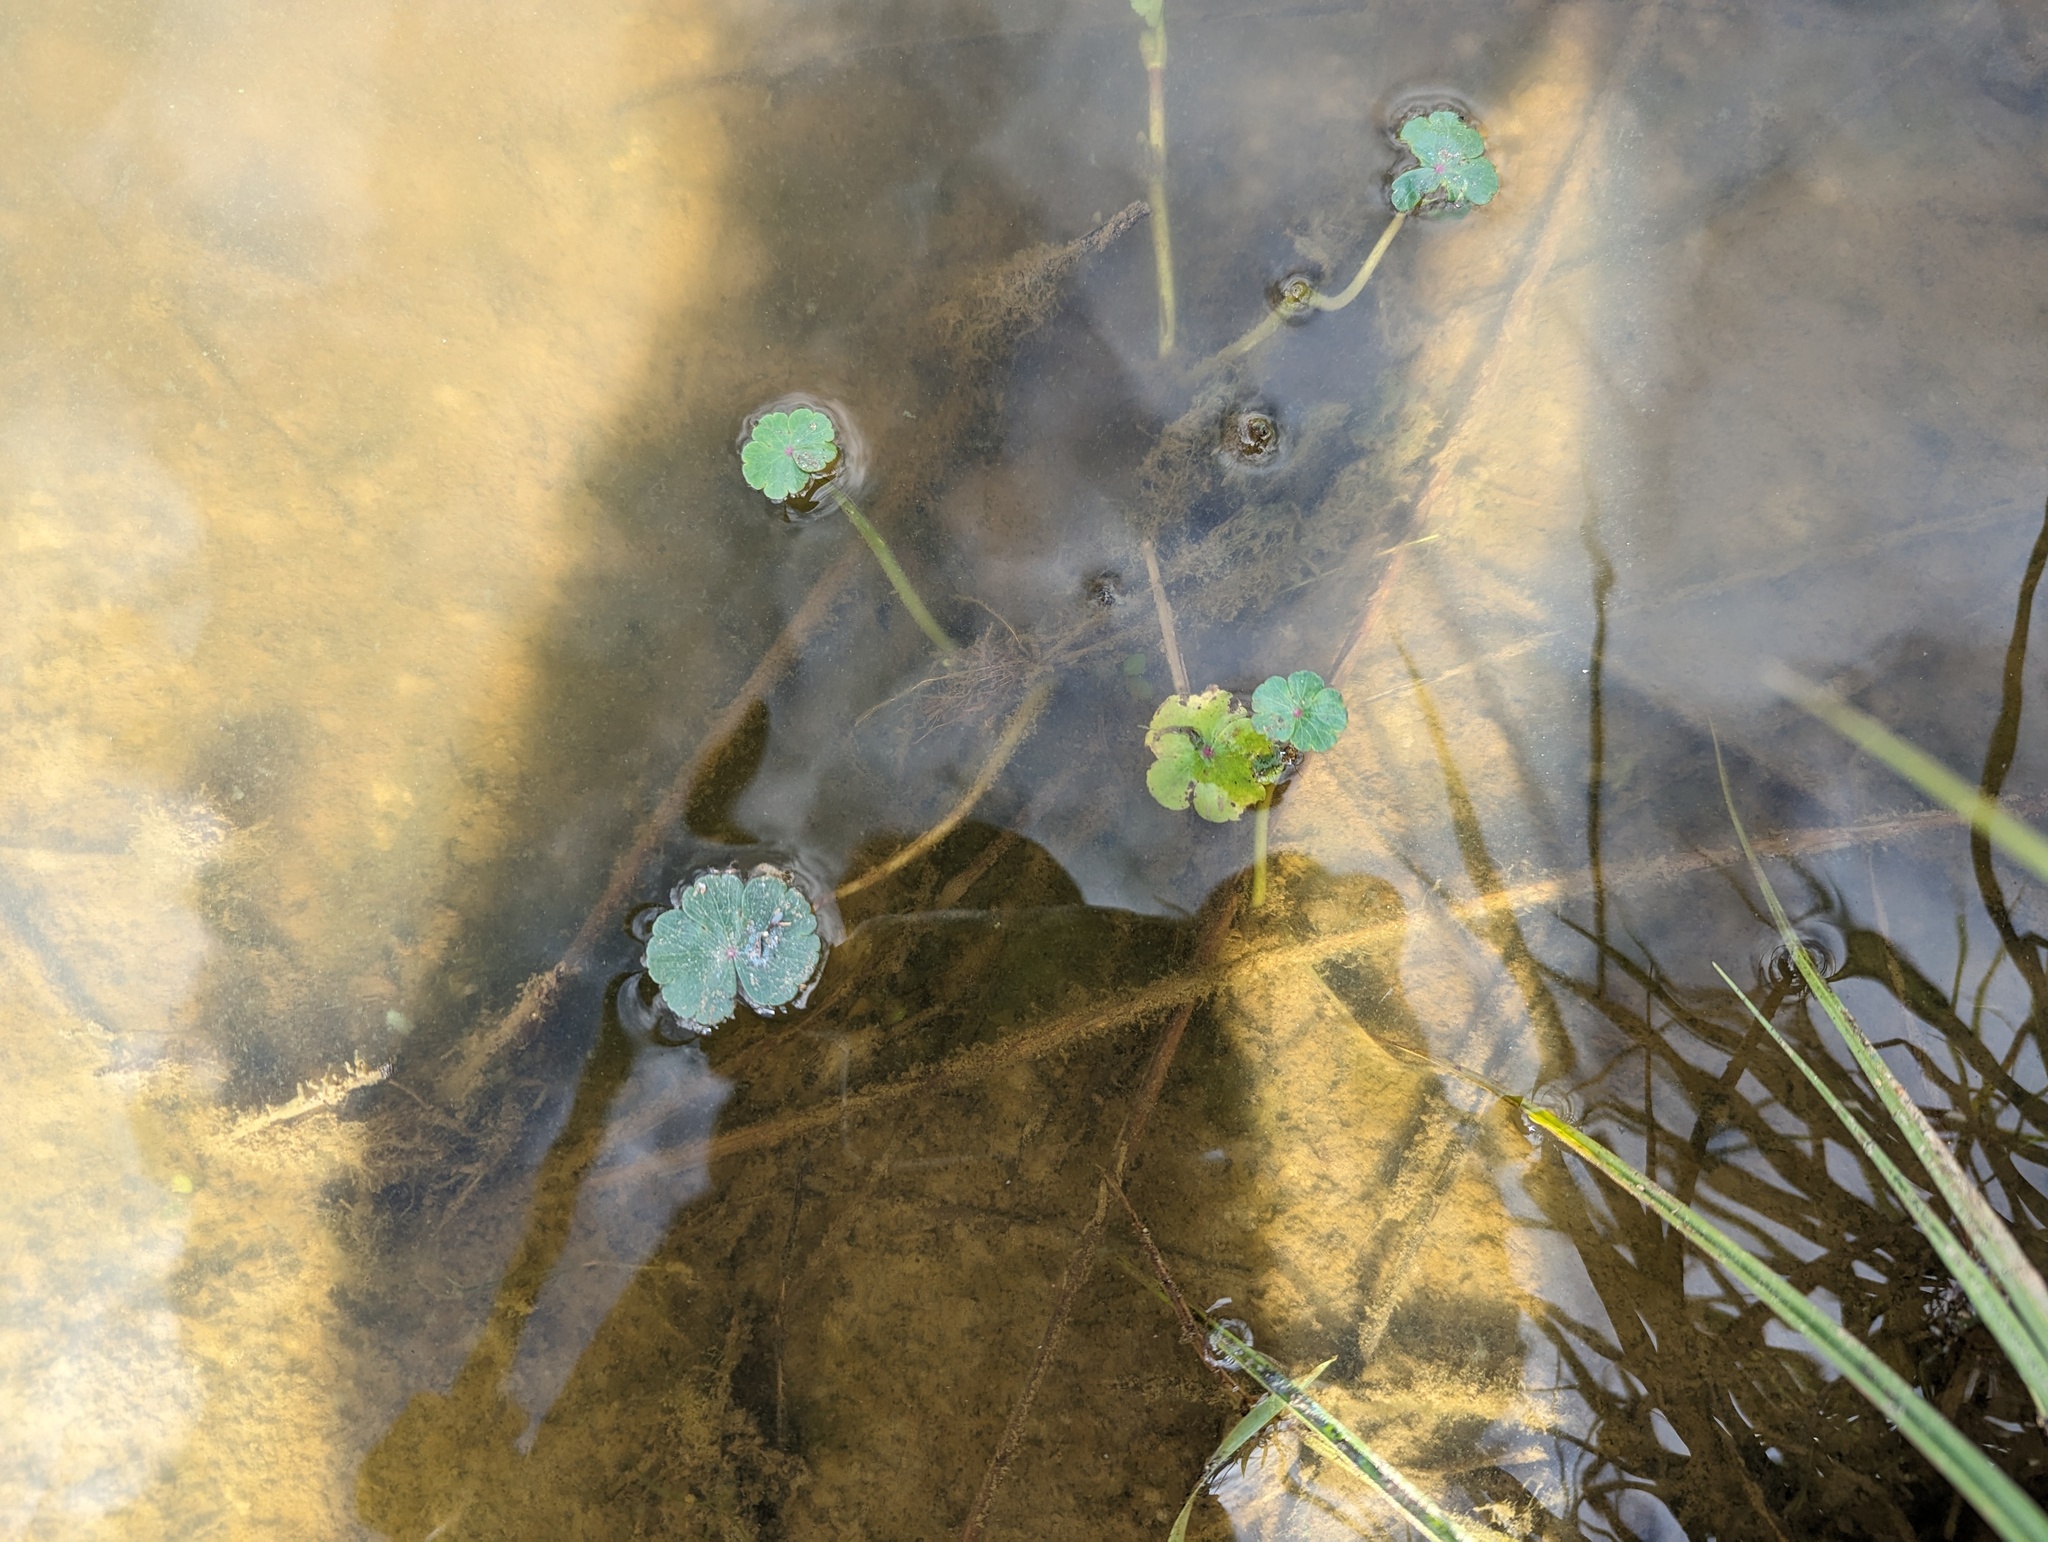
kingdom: Plantae
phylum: Tracheophyta
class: Magnoliopsida
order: Apiales
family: Araliaceae
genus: Hydrocotyle
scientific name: Hydrocotyle ranunculoides
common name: Floating pennywort
